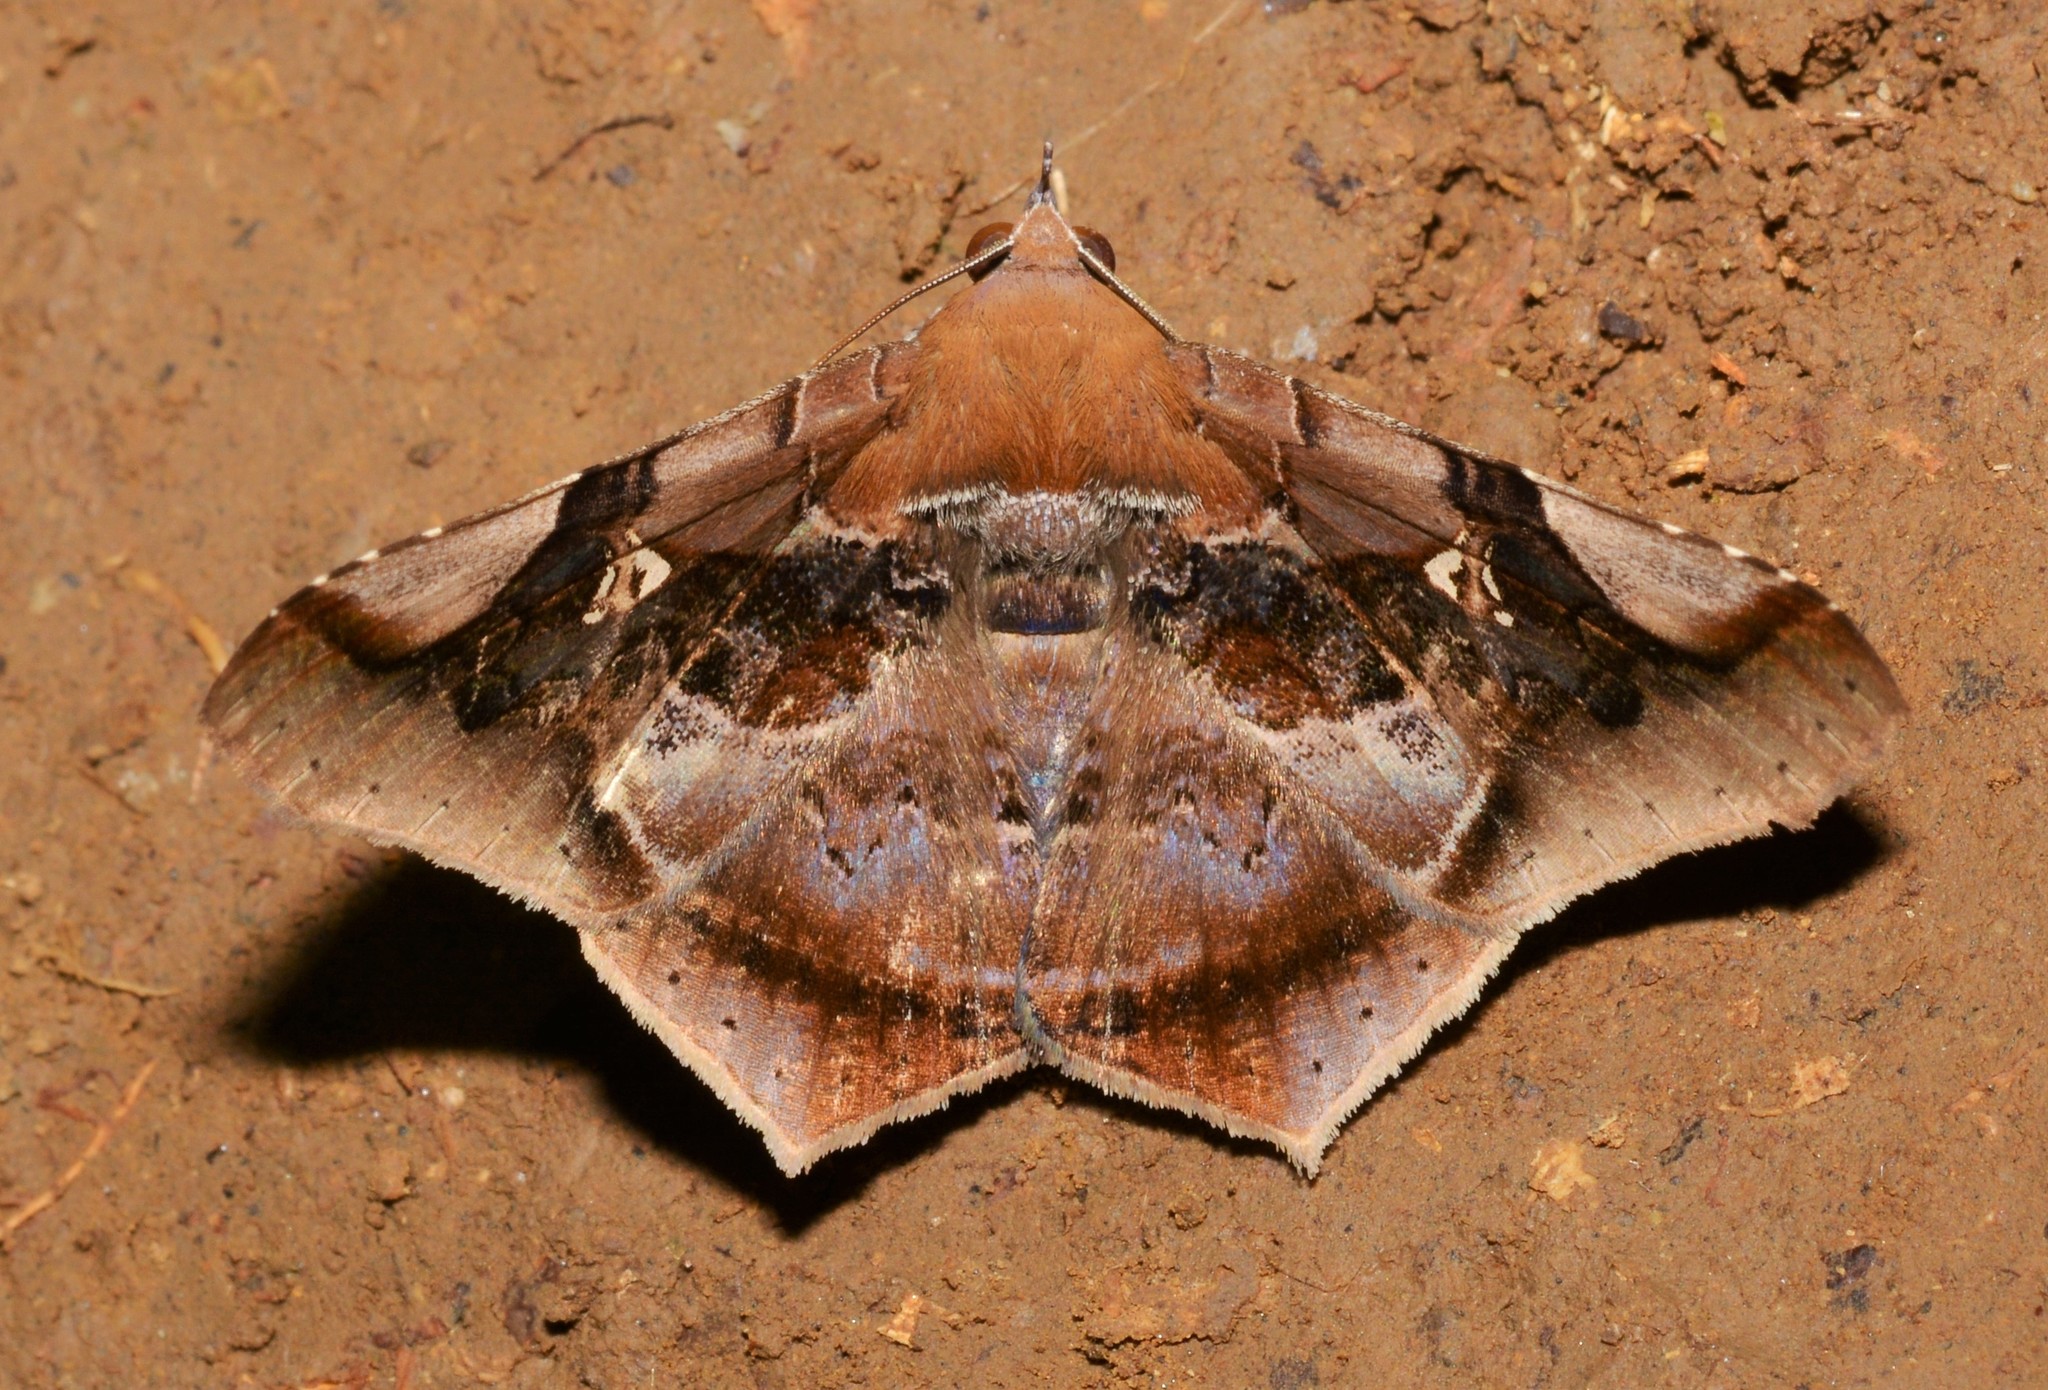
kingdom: Animalia
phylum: Arthropoda
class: Insecta
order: Lepidoptera
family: Erebidae
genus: Euclystis
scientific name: Euclystis guerini
